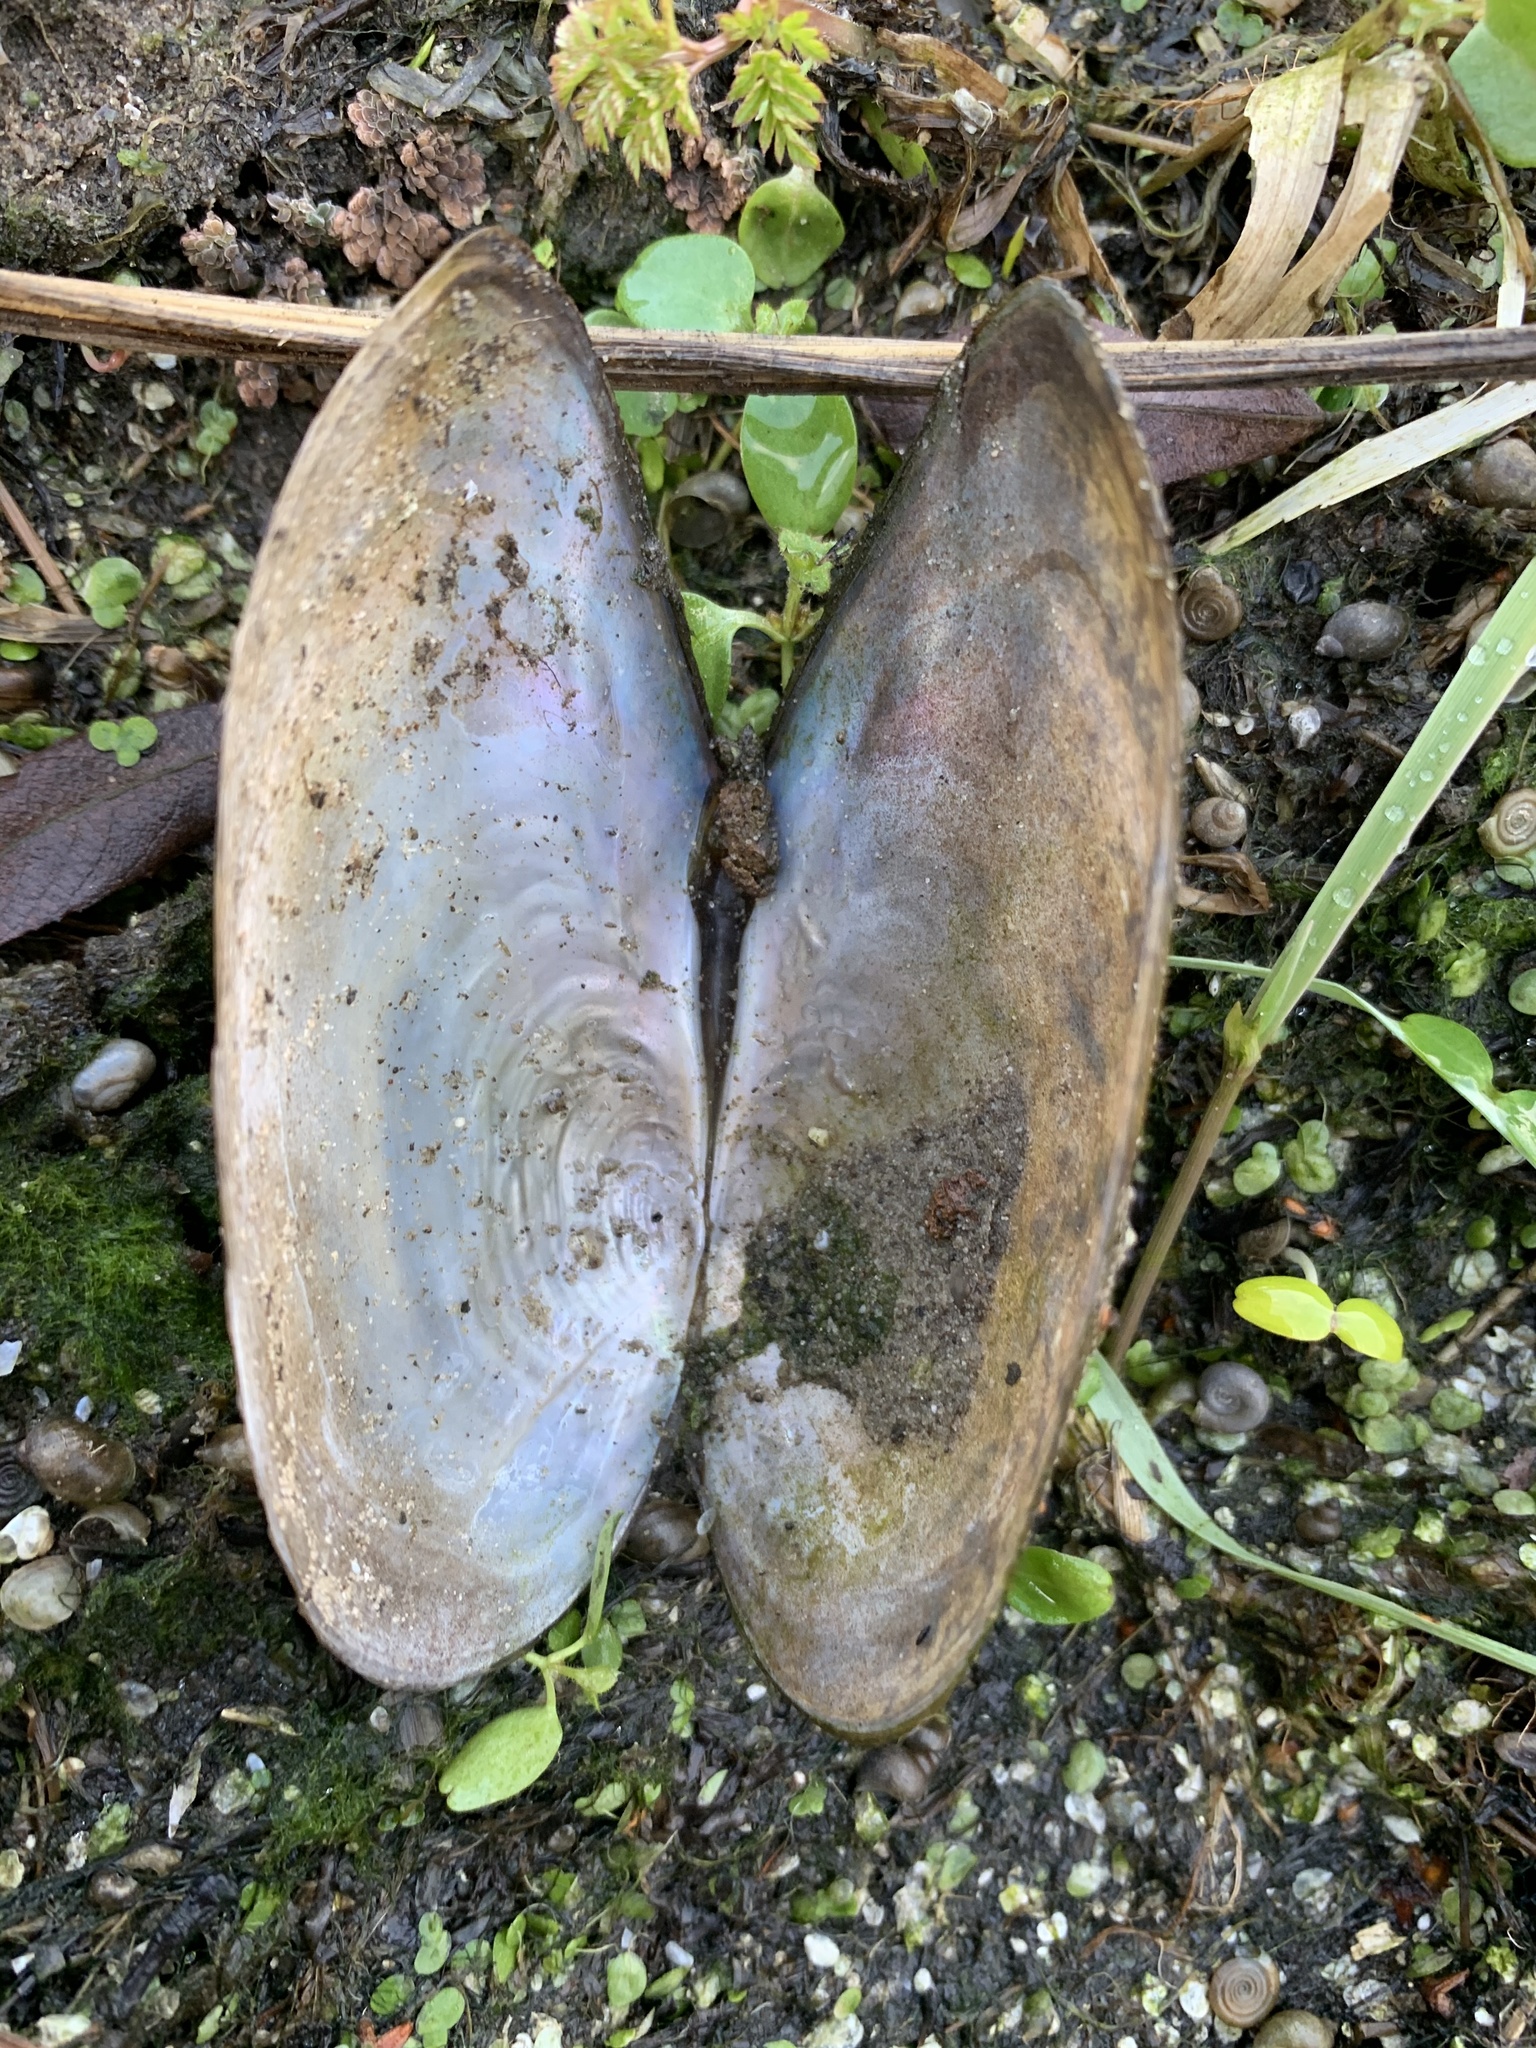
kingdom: Animalia
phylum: Mollusca
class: Bivalvia
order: Unionida
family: Unionidae
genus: Anodonta
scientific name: Anodonta anatina
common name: Duck mussel
